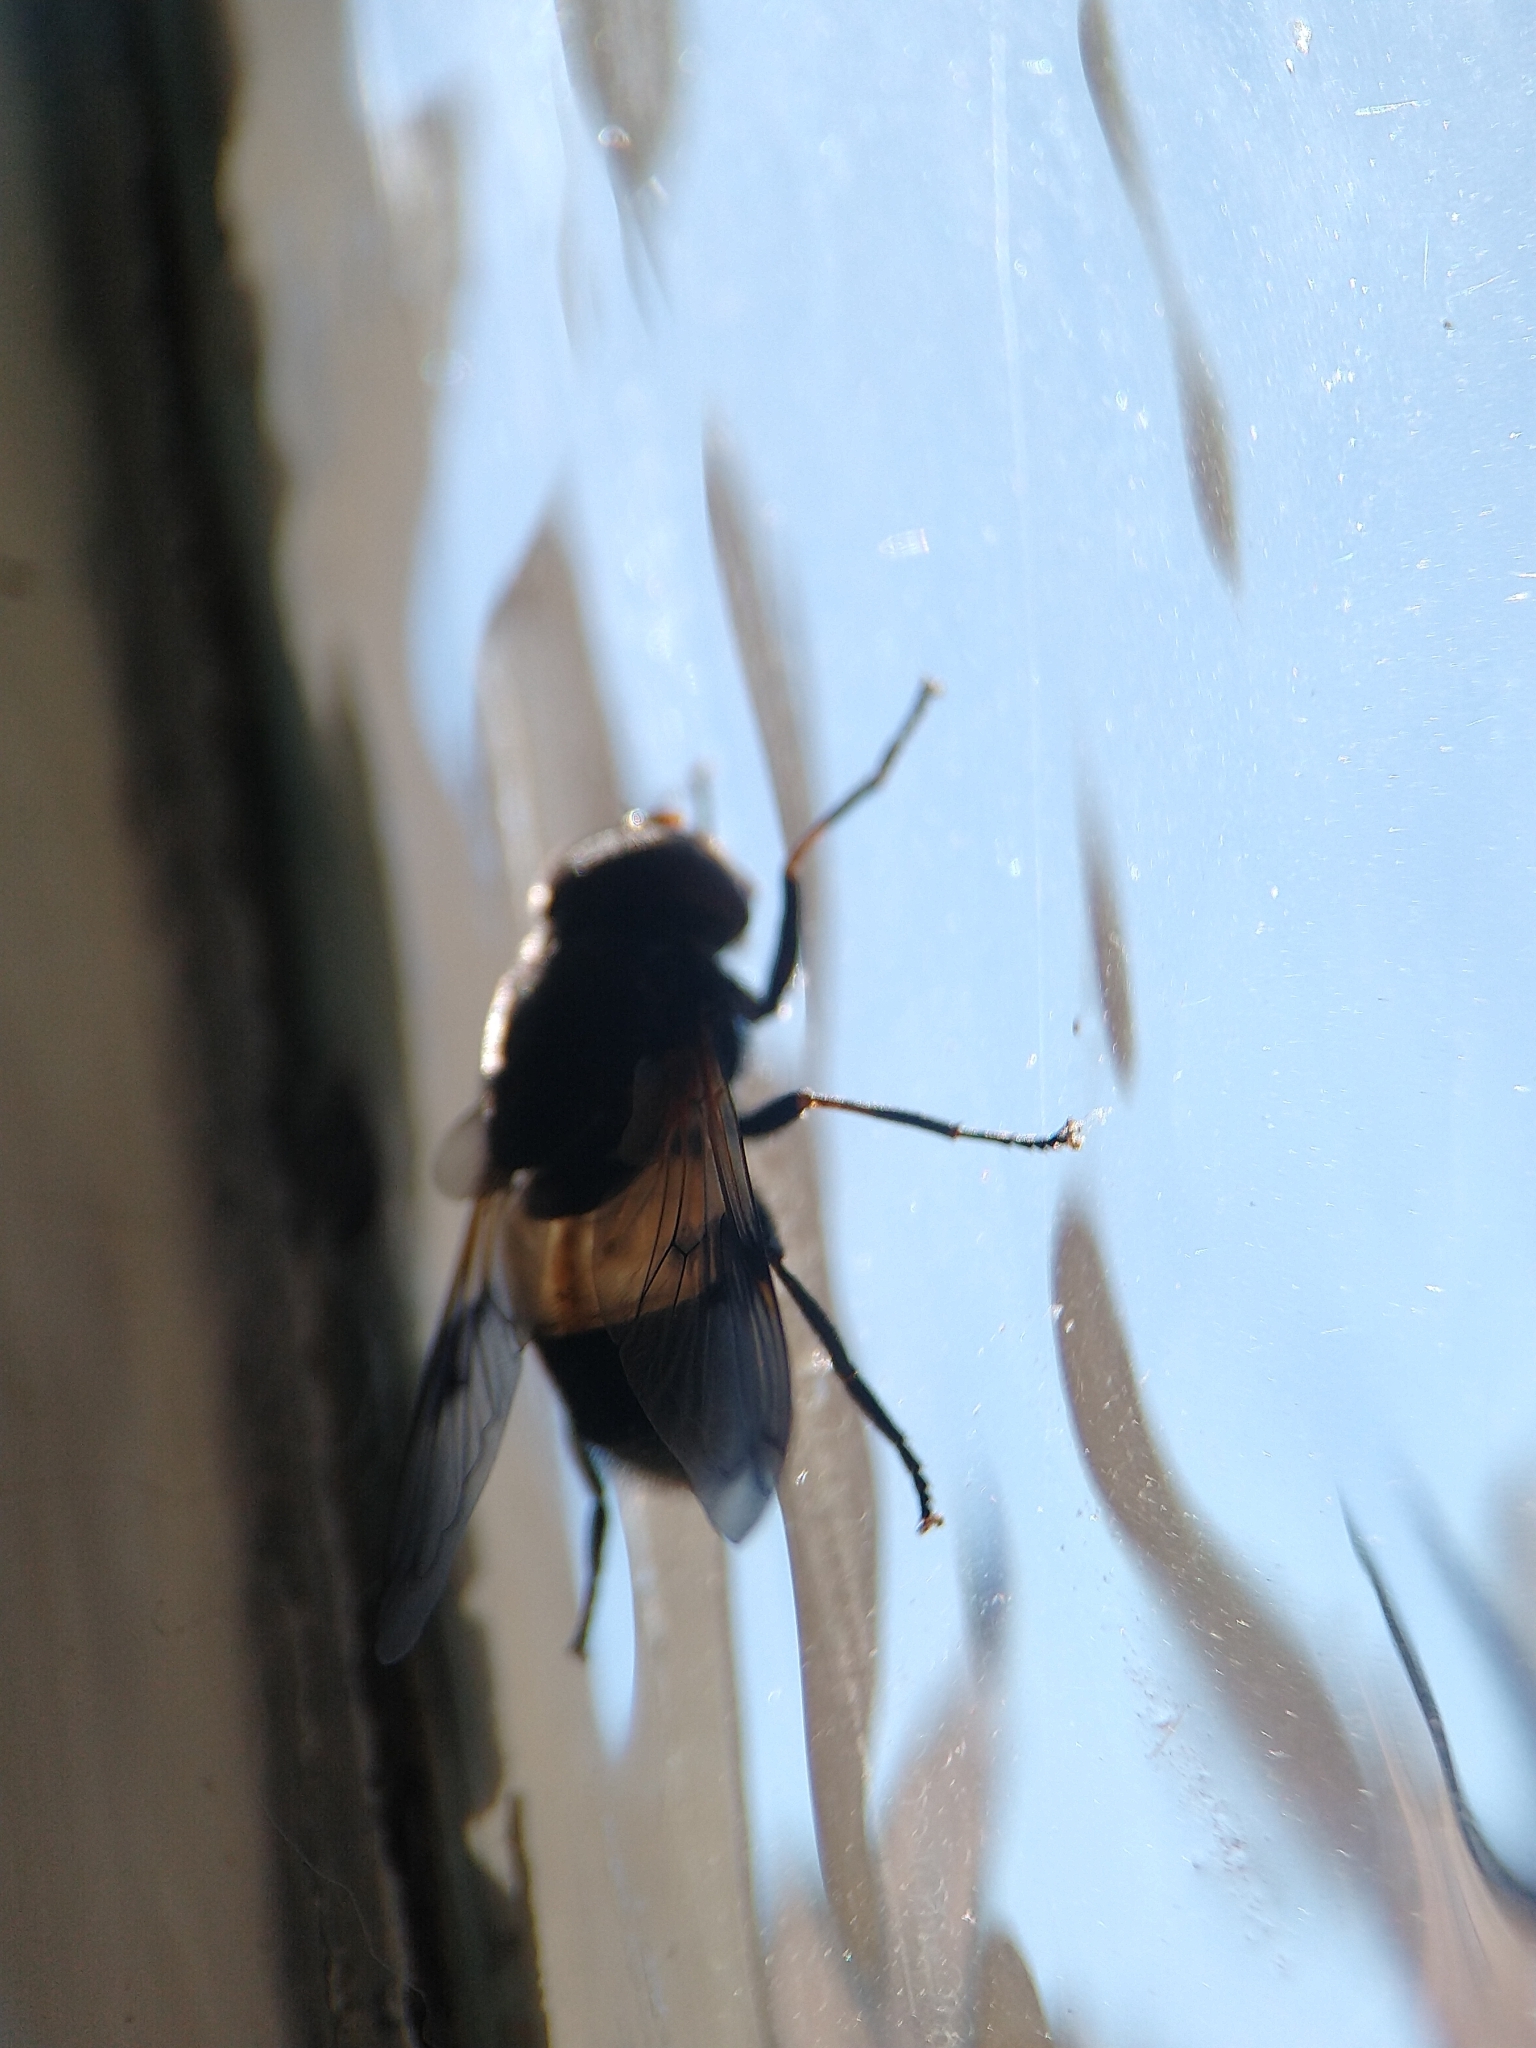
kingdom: Animalia
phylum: Arthropoda
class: Insecta
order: Diptera
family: Syrphidae
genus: Volucella
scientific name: Volucella pellucens
